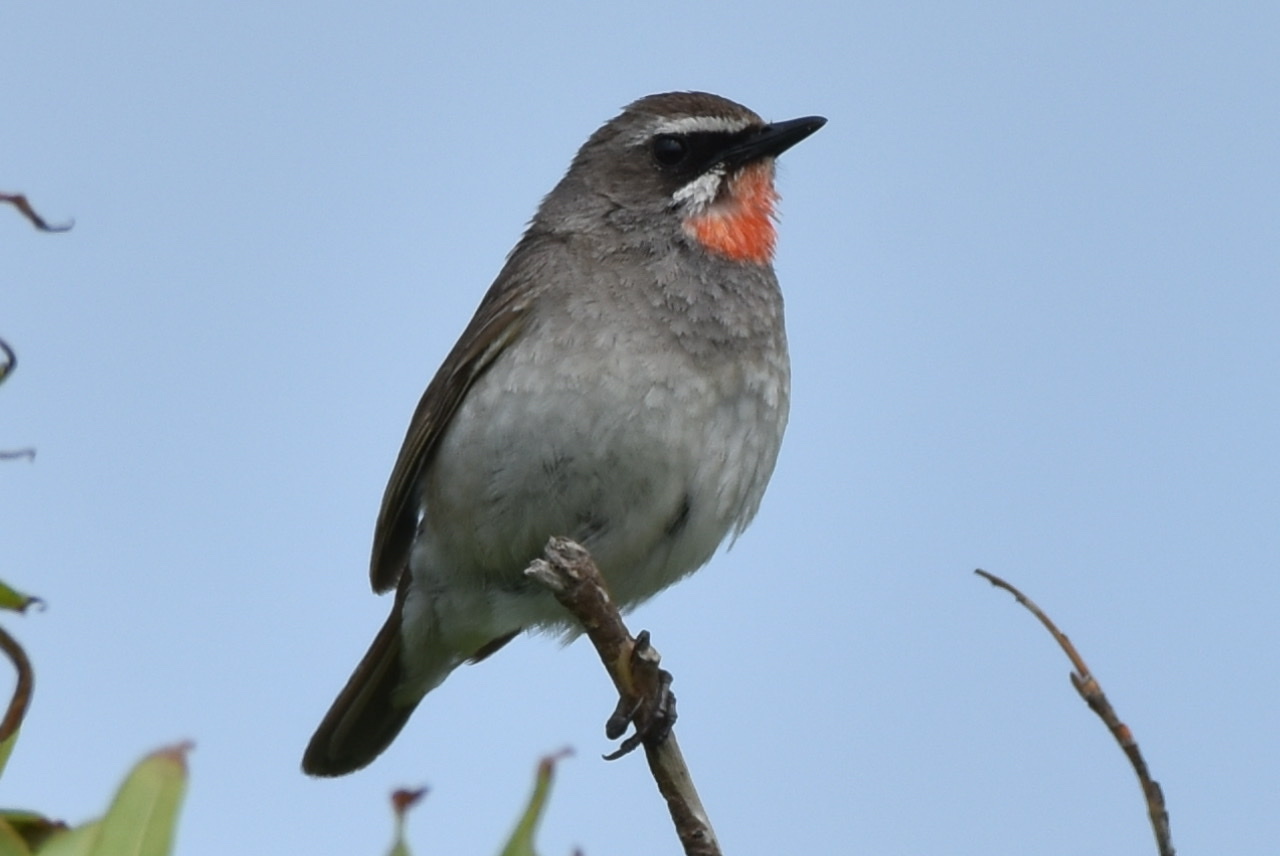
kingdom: Animalia
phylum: Chordata
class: Aves
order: Passeriformes
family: Muscicapidae
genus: Luscinia
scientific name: Luscinia calliope
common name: Siberian rubythroat
